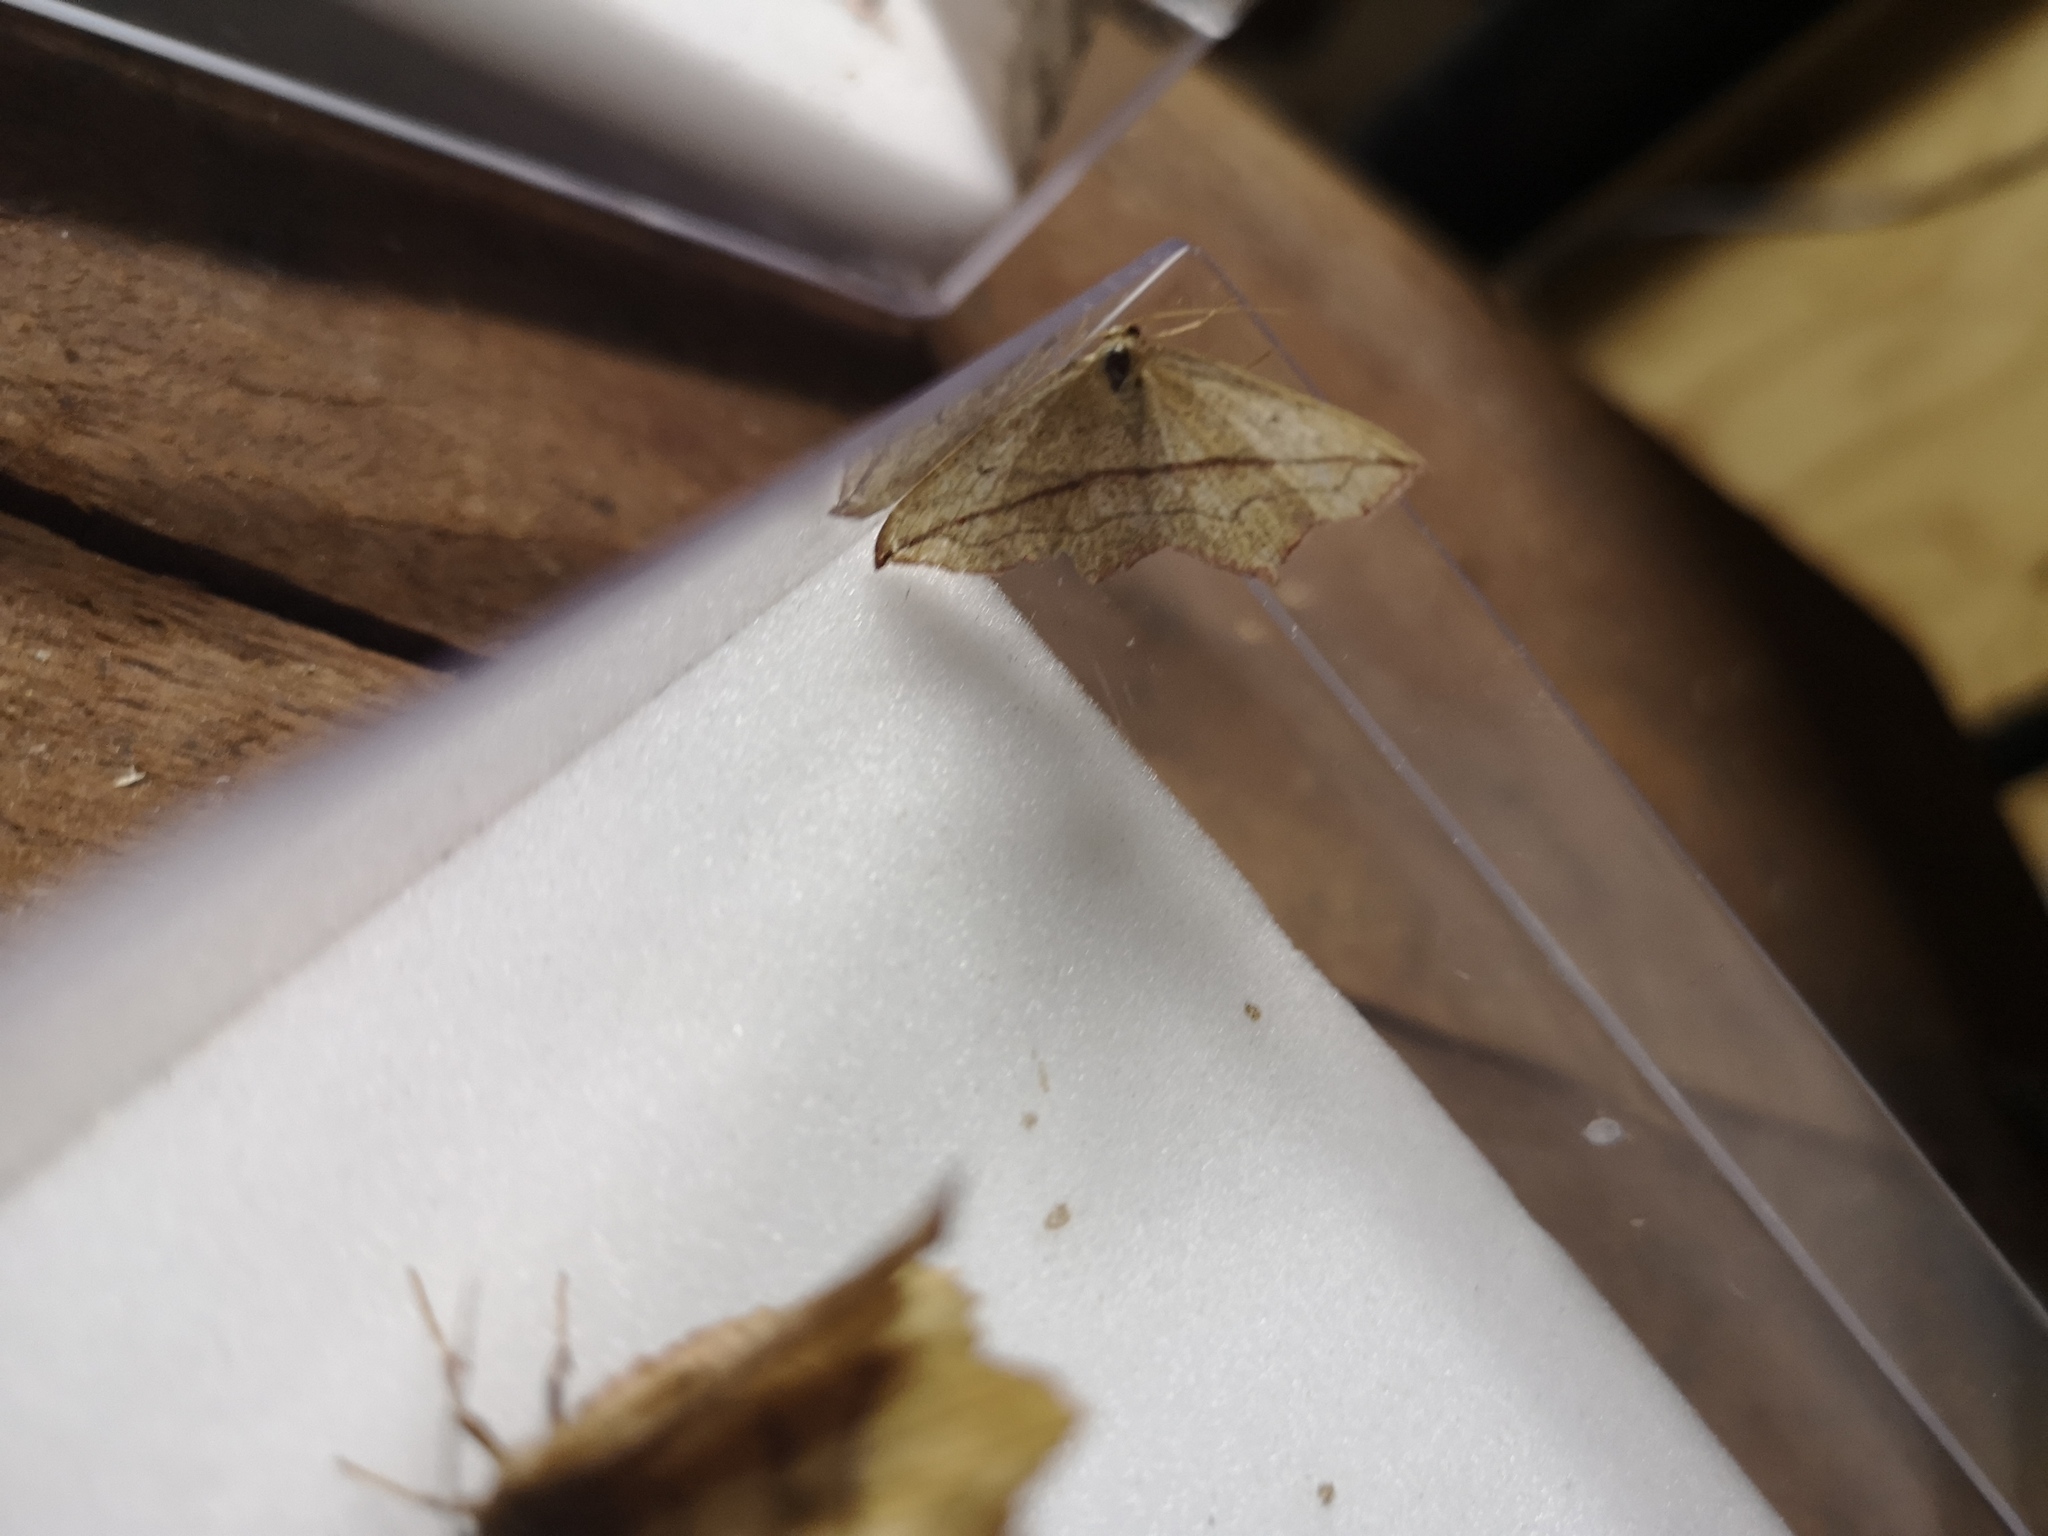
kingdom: Animalia
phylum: Arthropoda
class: Insecta
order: Lepidoptera
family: Geometridae
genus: Timandra
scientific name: Timandra comae
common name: Blood-vein
